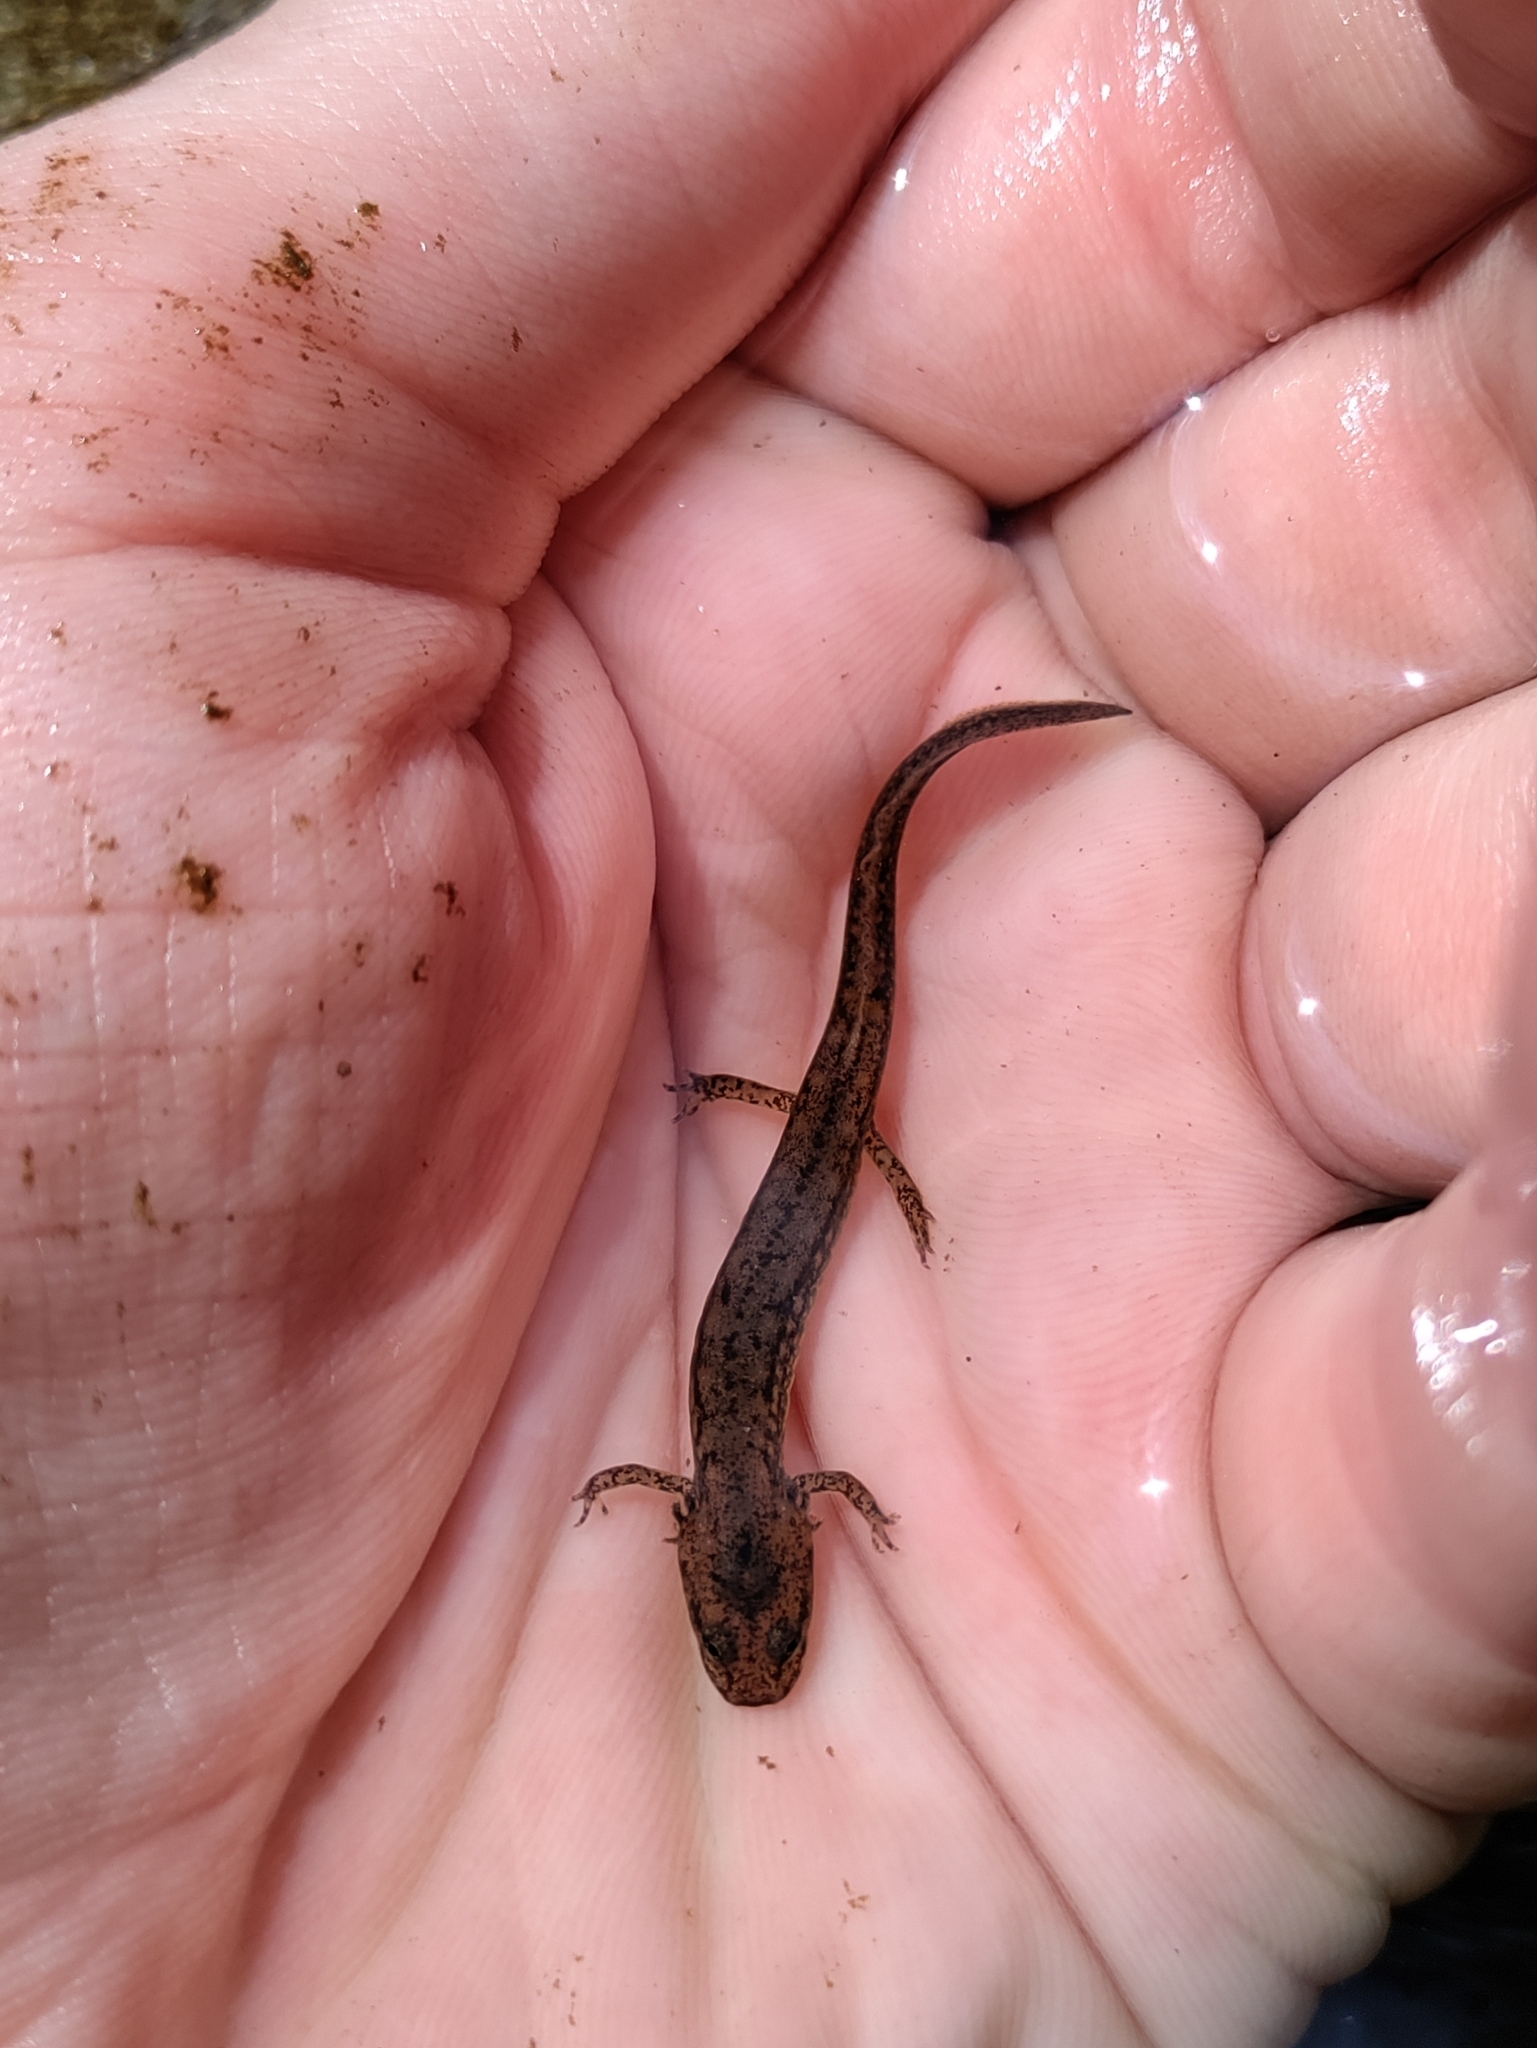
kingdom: Animalia
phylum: Chordata
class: Amphibia
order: Caudata
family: Plethodontidae
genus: Eurycea
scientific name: Eurycea bislineata
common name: Northern two-lined salamander
